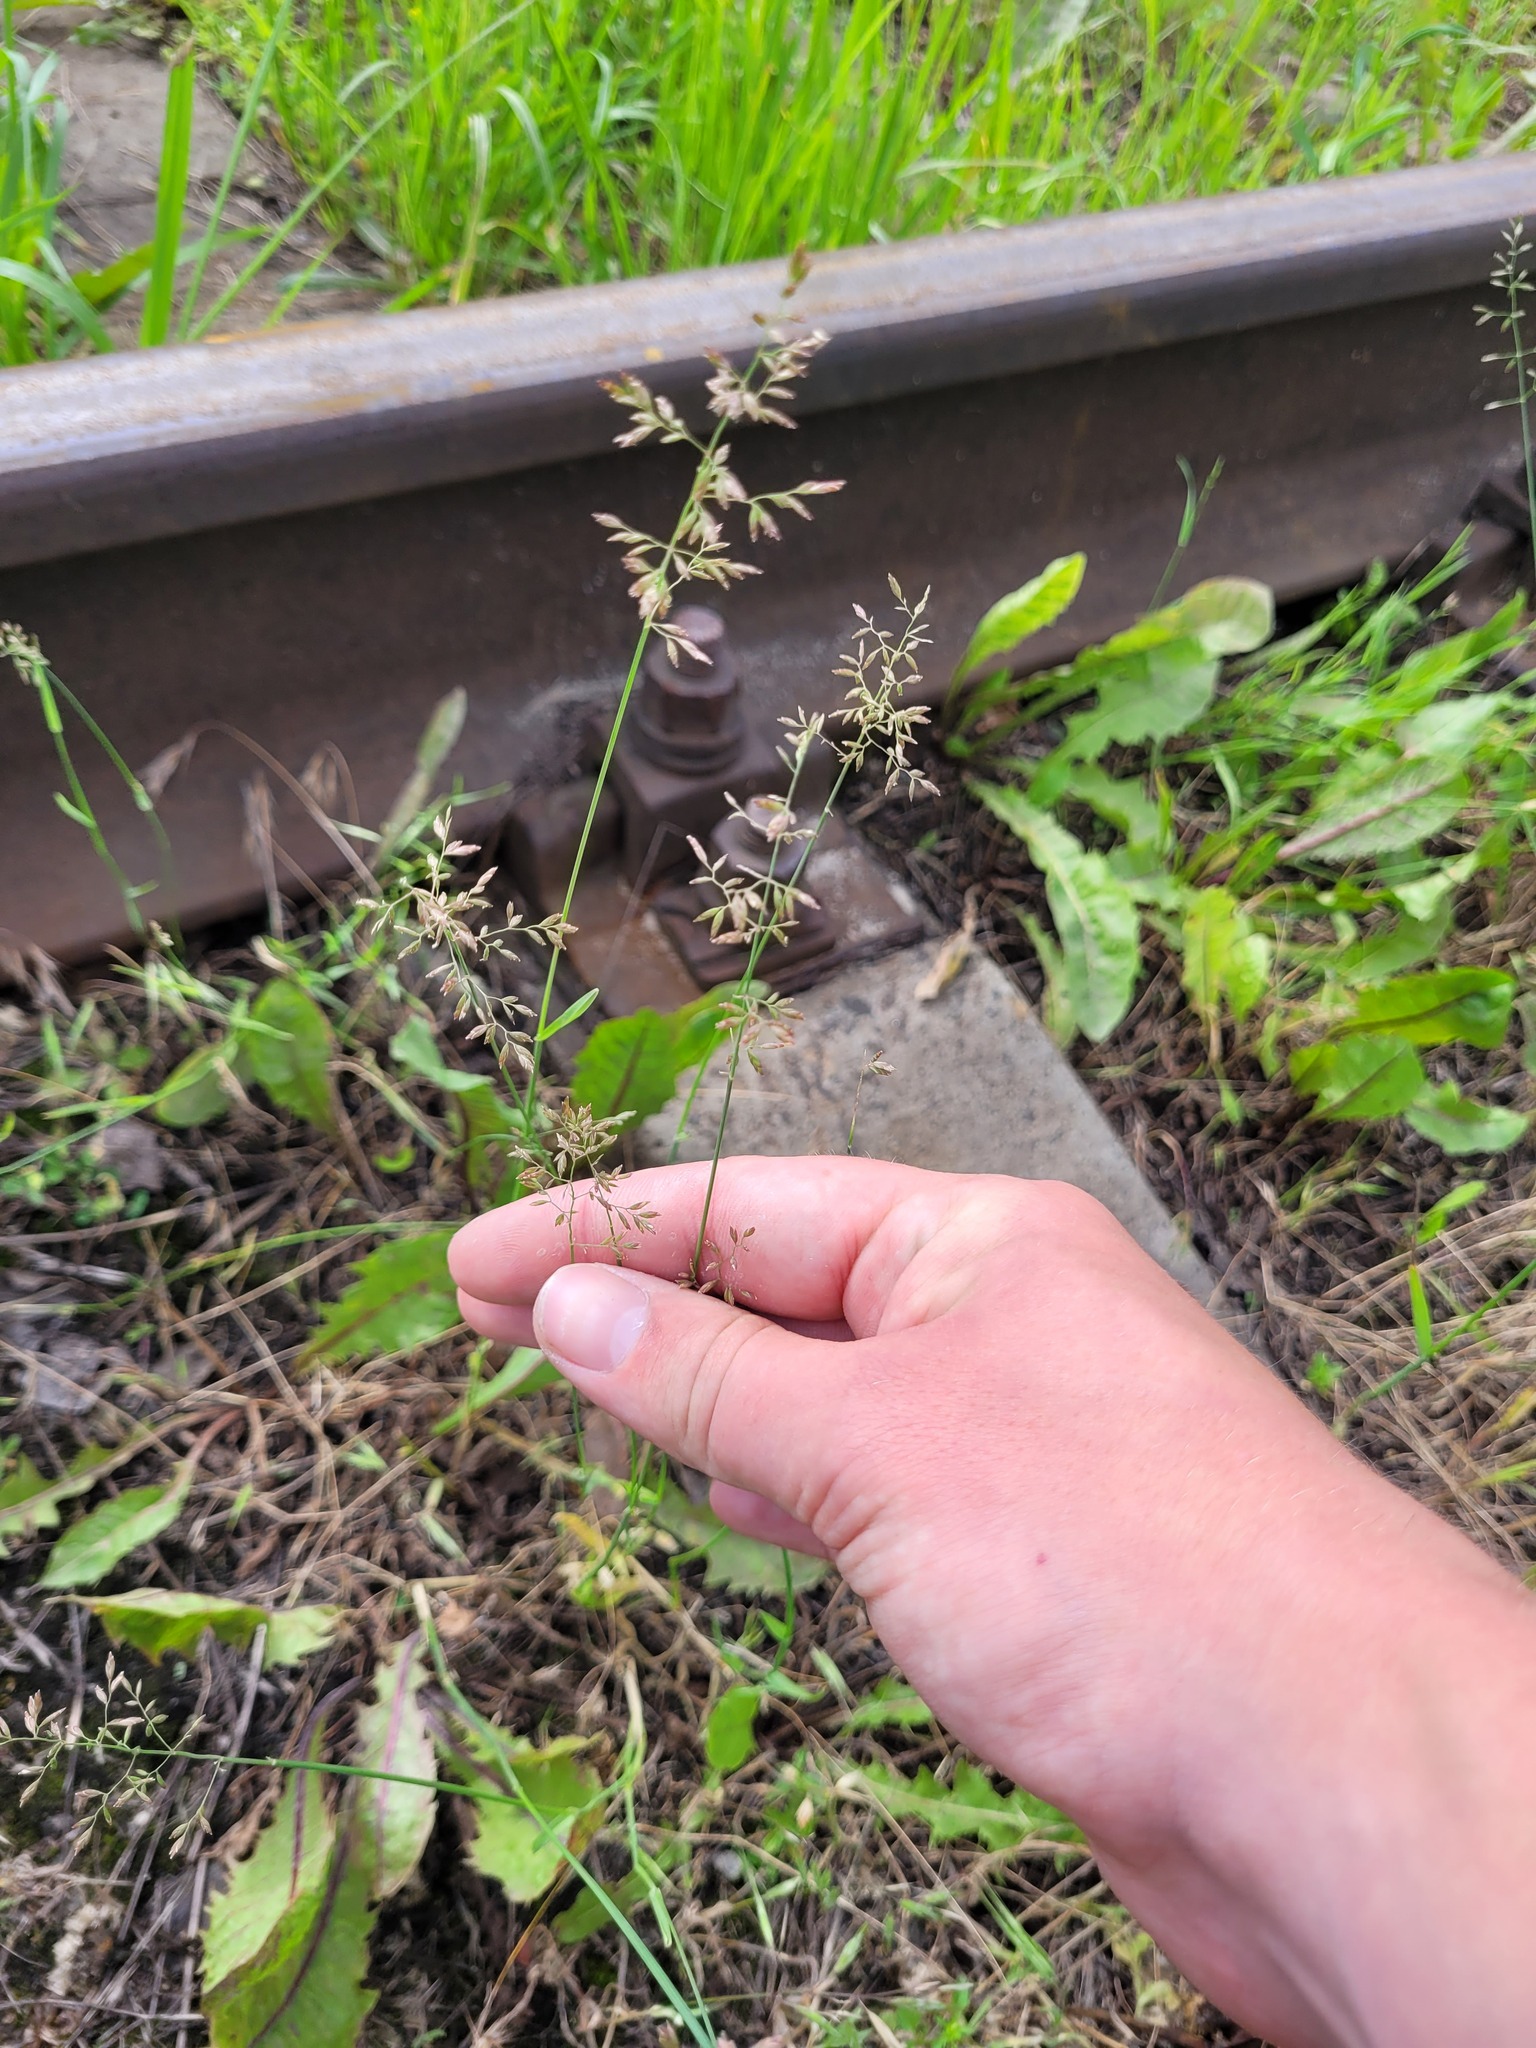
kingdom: Plantae
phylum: Tracheophyta
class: Liliopsida
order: Poales
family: Poaceae
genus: Poa
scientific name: Poa compressa
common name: Canada bluegrass
